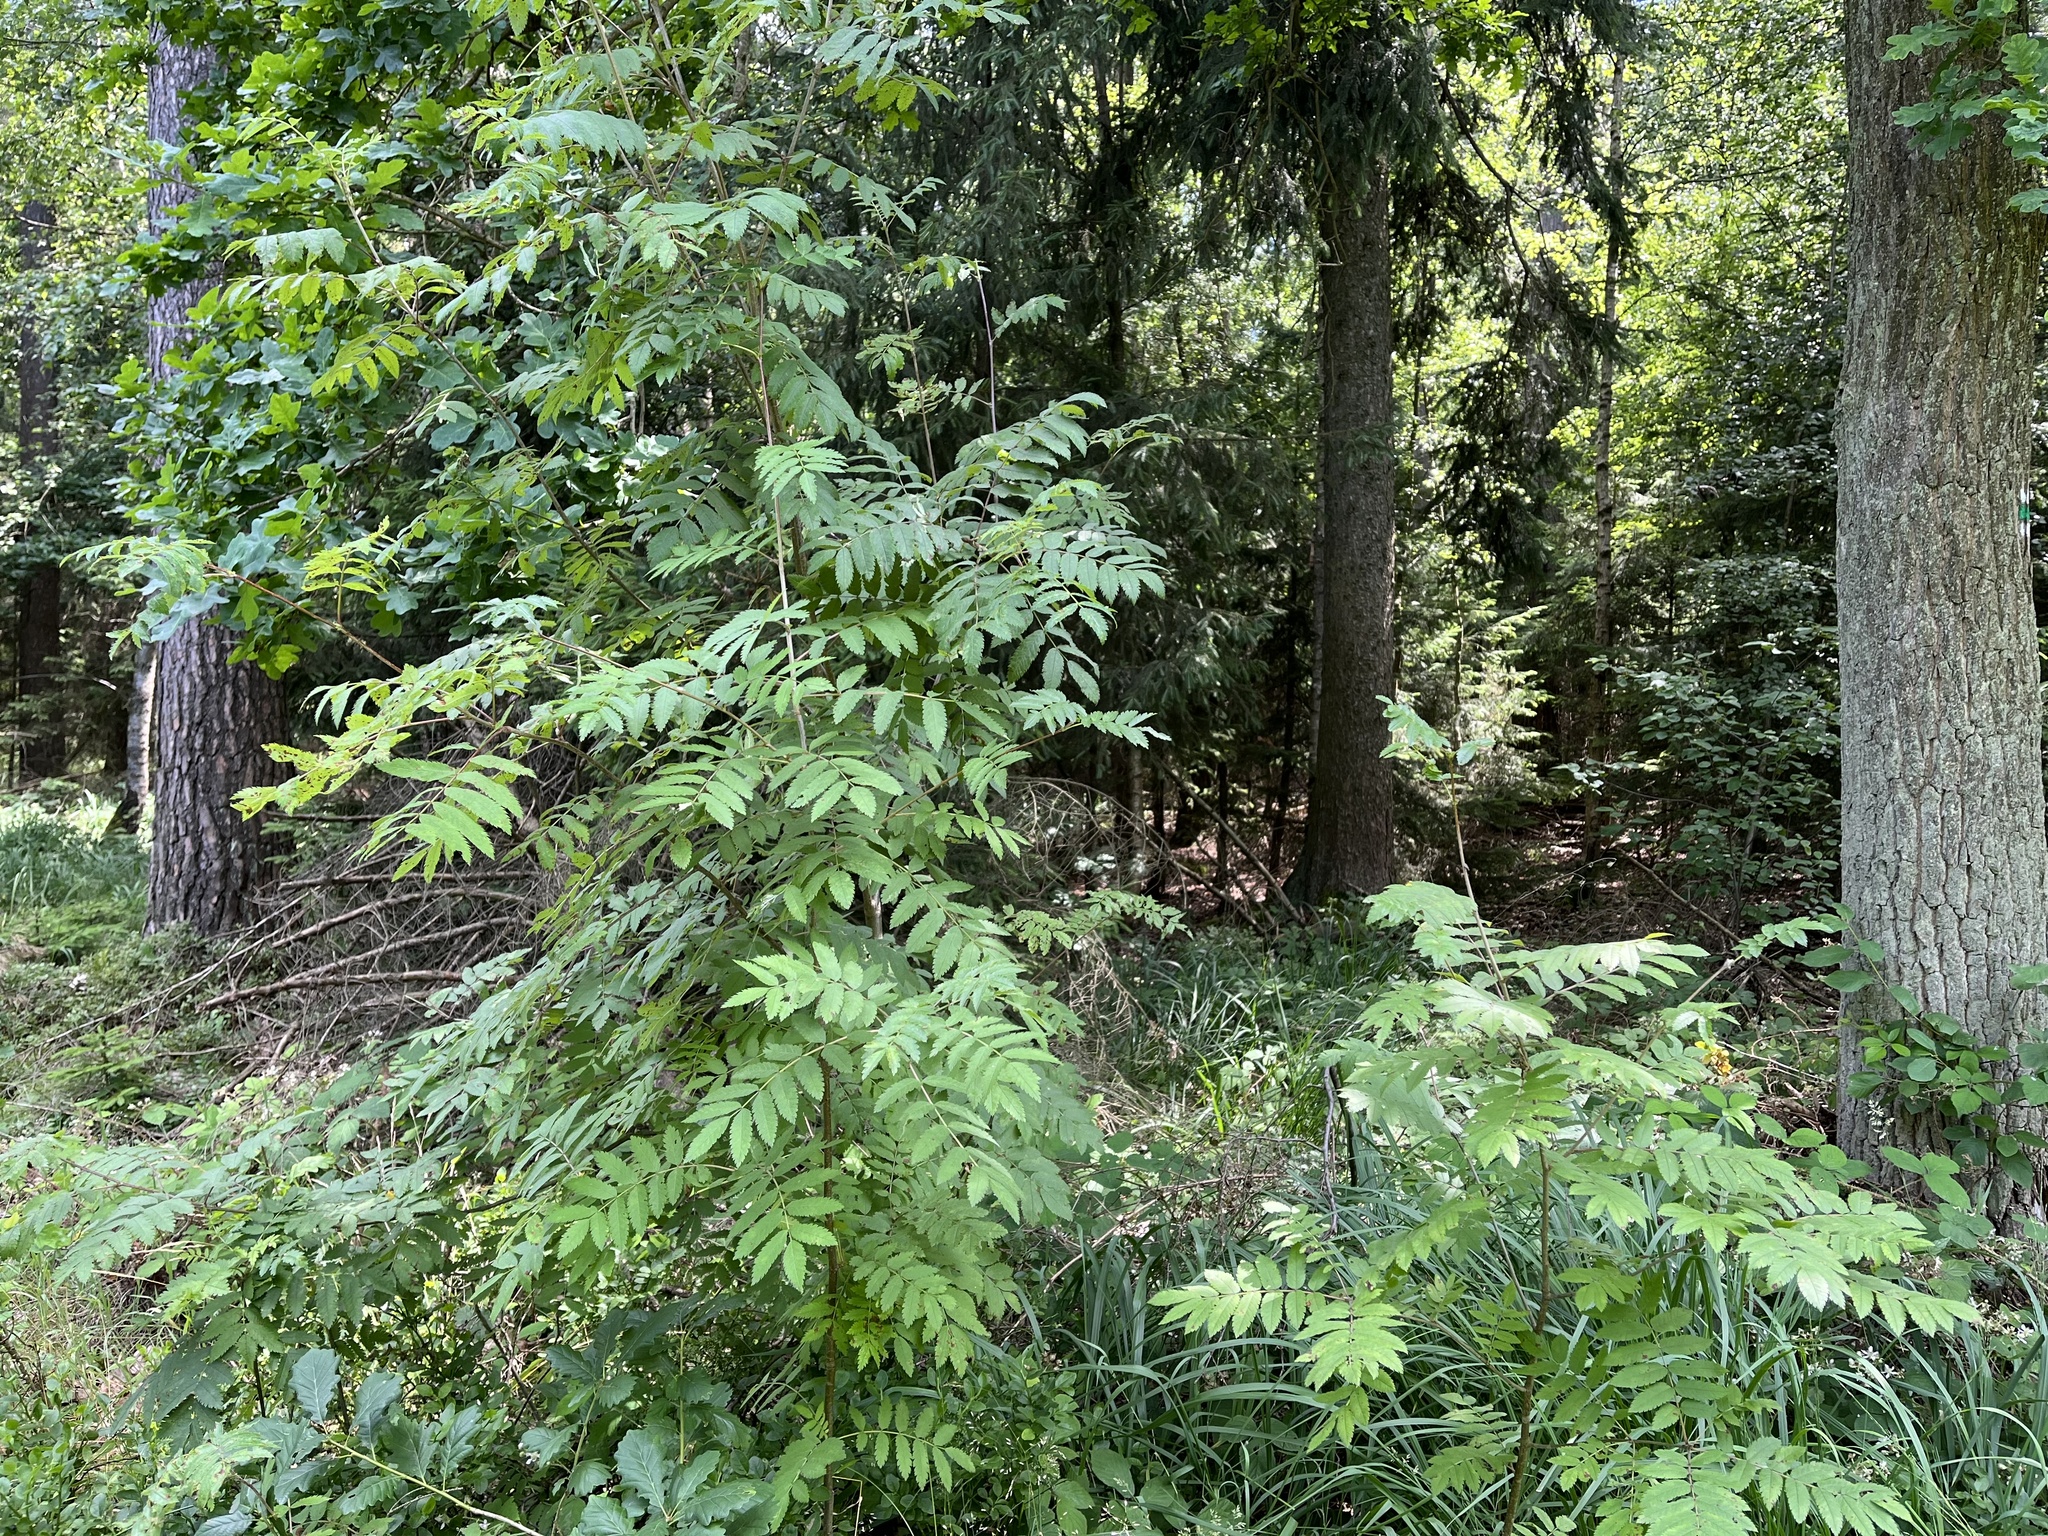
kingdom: Plantae
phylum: Tracheophyta
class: Magnoliopsida
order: Rosales
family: Rosaceae
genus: Sorbus
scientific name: Sorbus aucuparia
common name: Rowan
